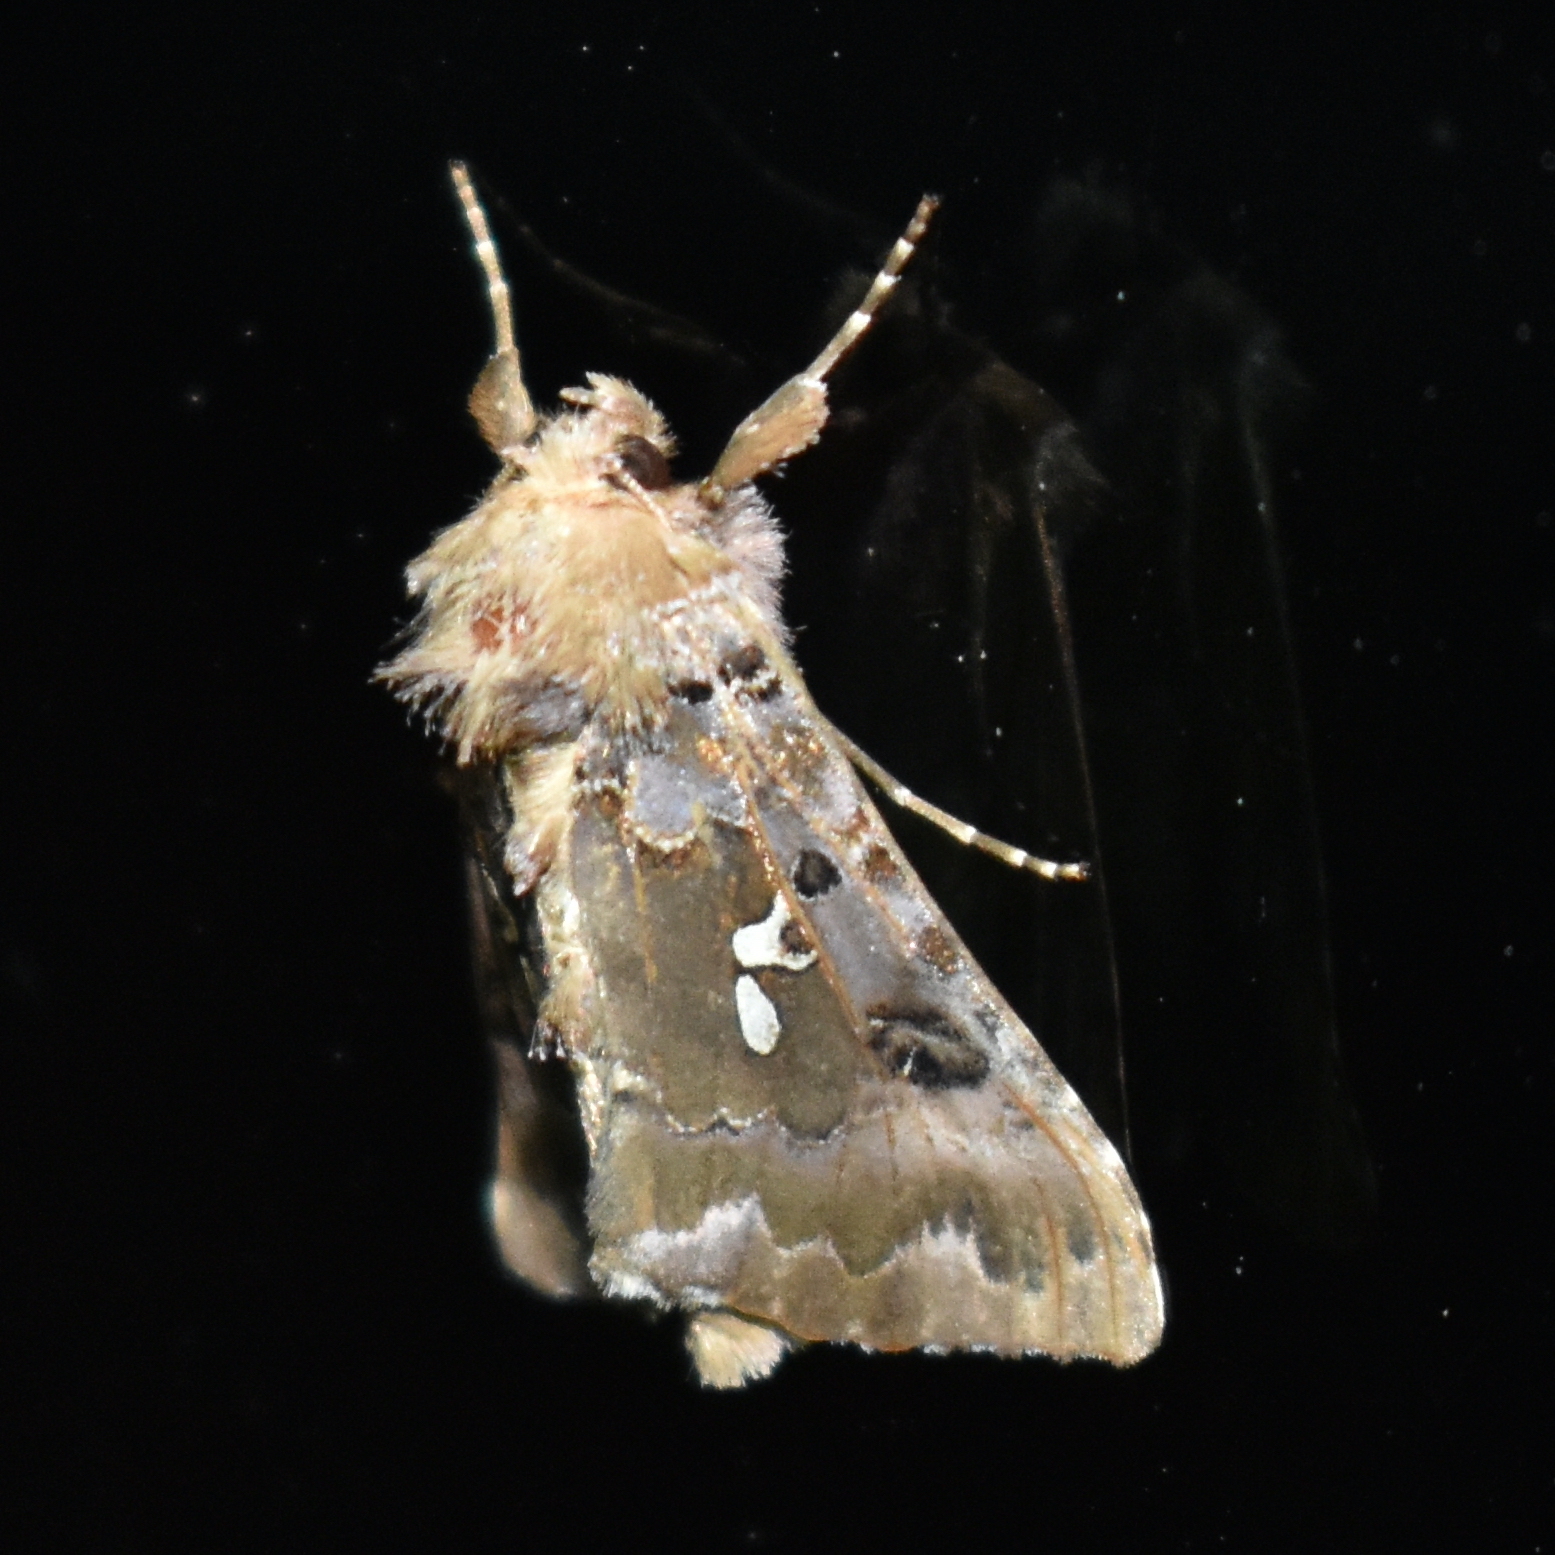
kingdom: Animalia
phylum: Arthropoda
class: Insecta
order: Lepidoptera
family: Noctuidae
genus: Autographa
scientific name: Autographa corusca
